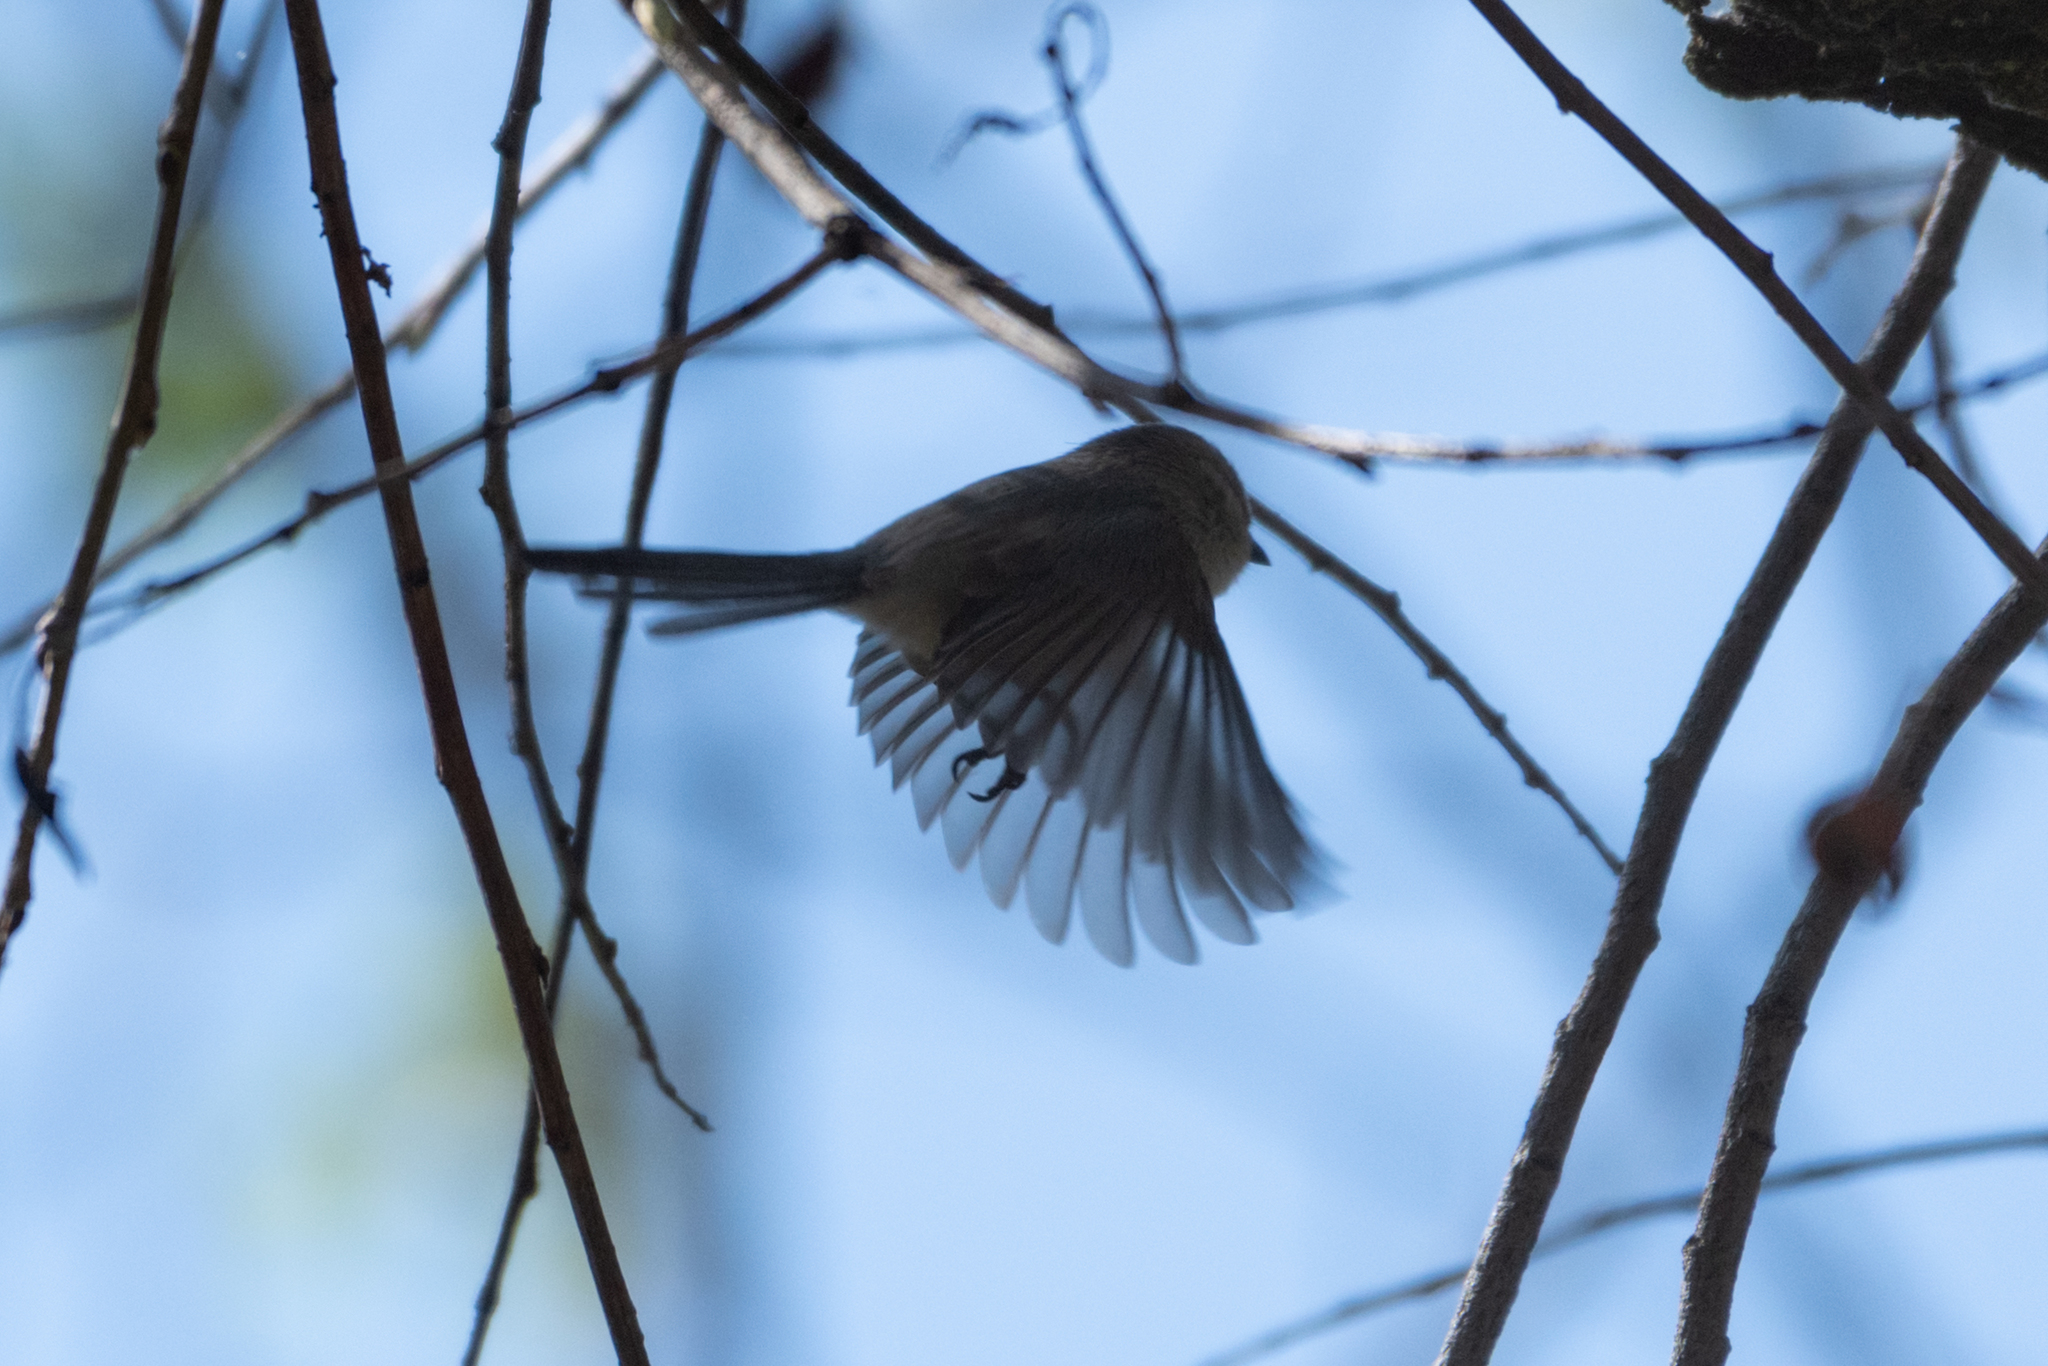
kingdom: Animalia
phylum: Chordata
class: Aves
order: Passeriformes
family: Aegithalidae
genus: Psaltriparus
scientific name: Psaltriparus minimus
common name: American bushtit
